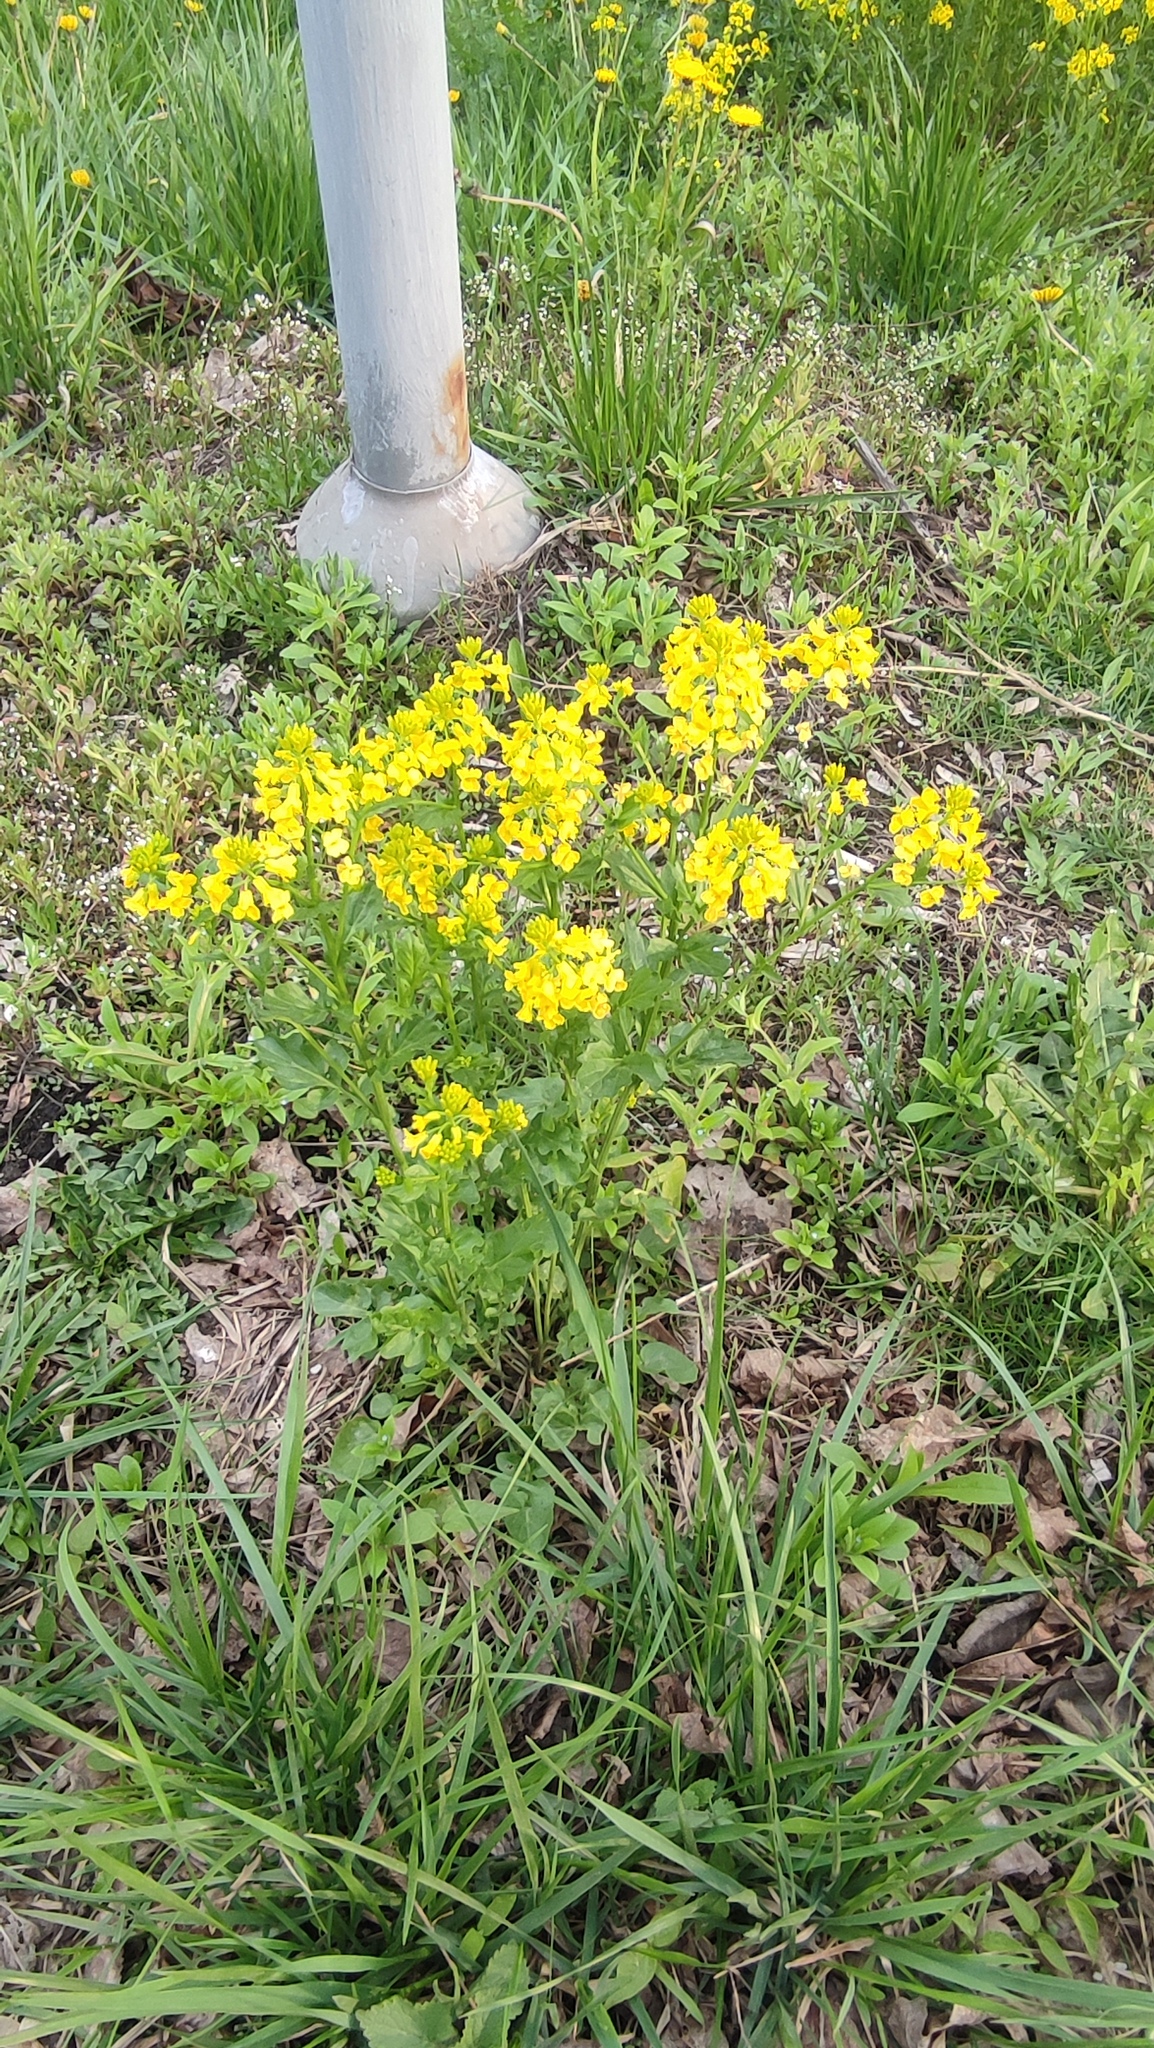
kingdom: Plantae
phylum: Tracheophyta
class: Magnoliopsida
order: Brassicales
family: Brassicaceae
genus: Barbarea
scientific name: Barbarea vulgaris
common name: Cressy-greens
